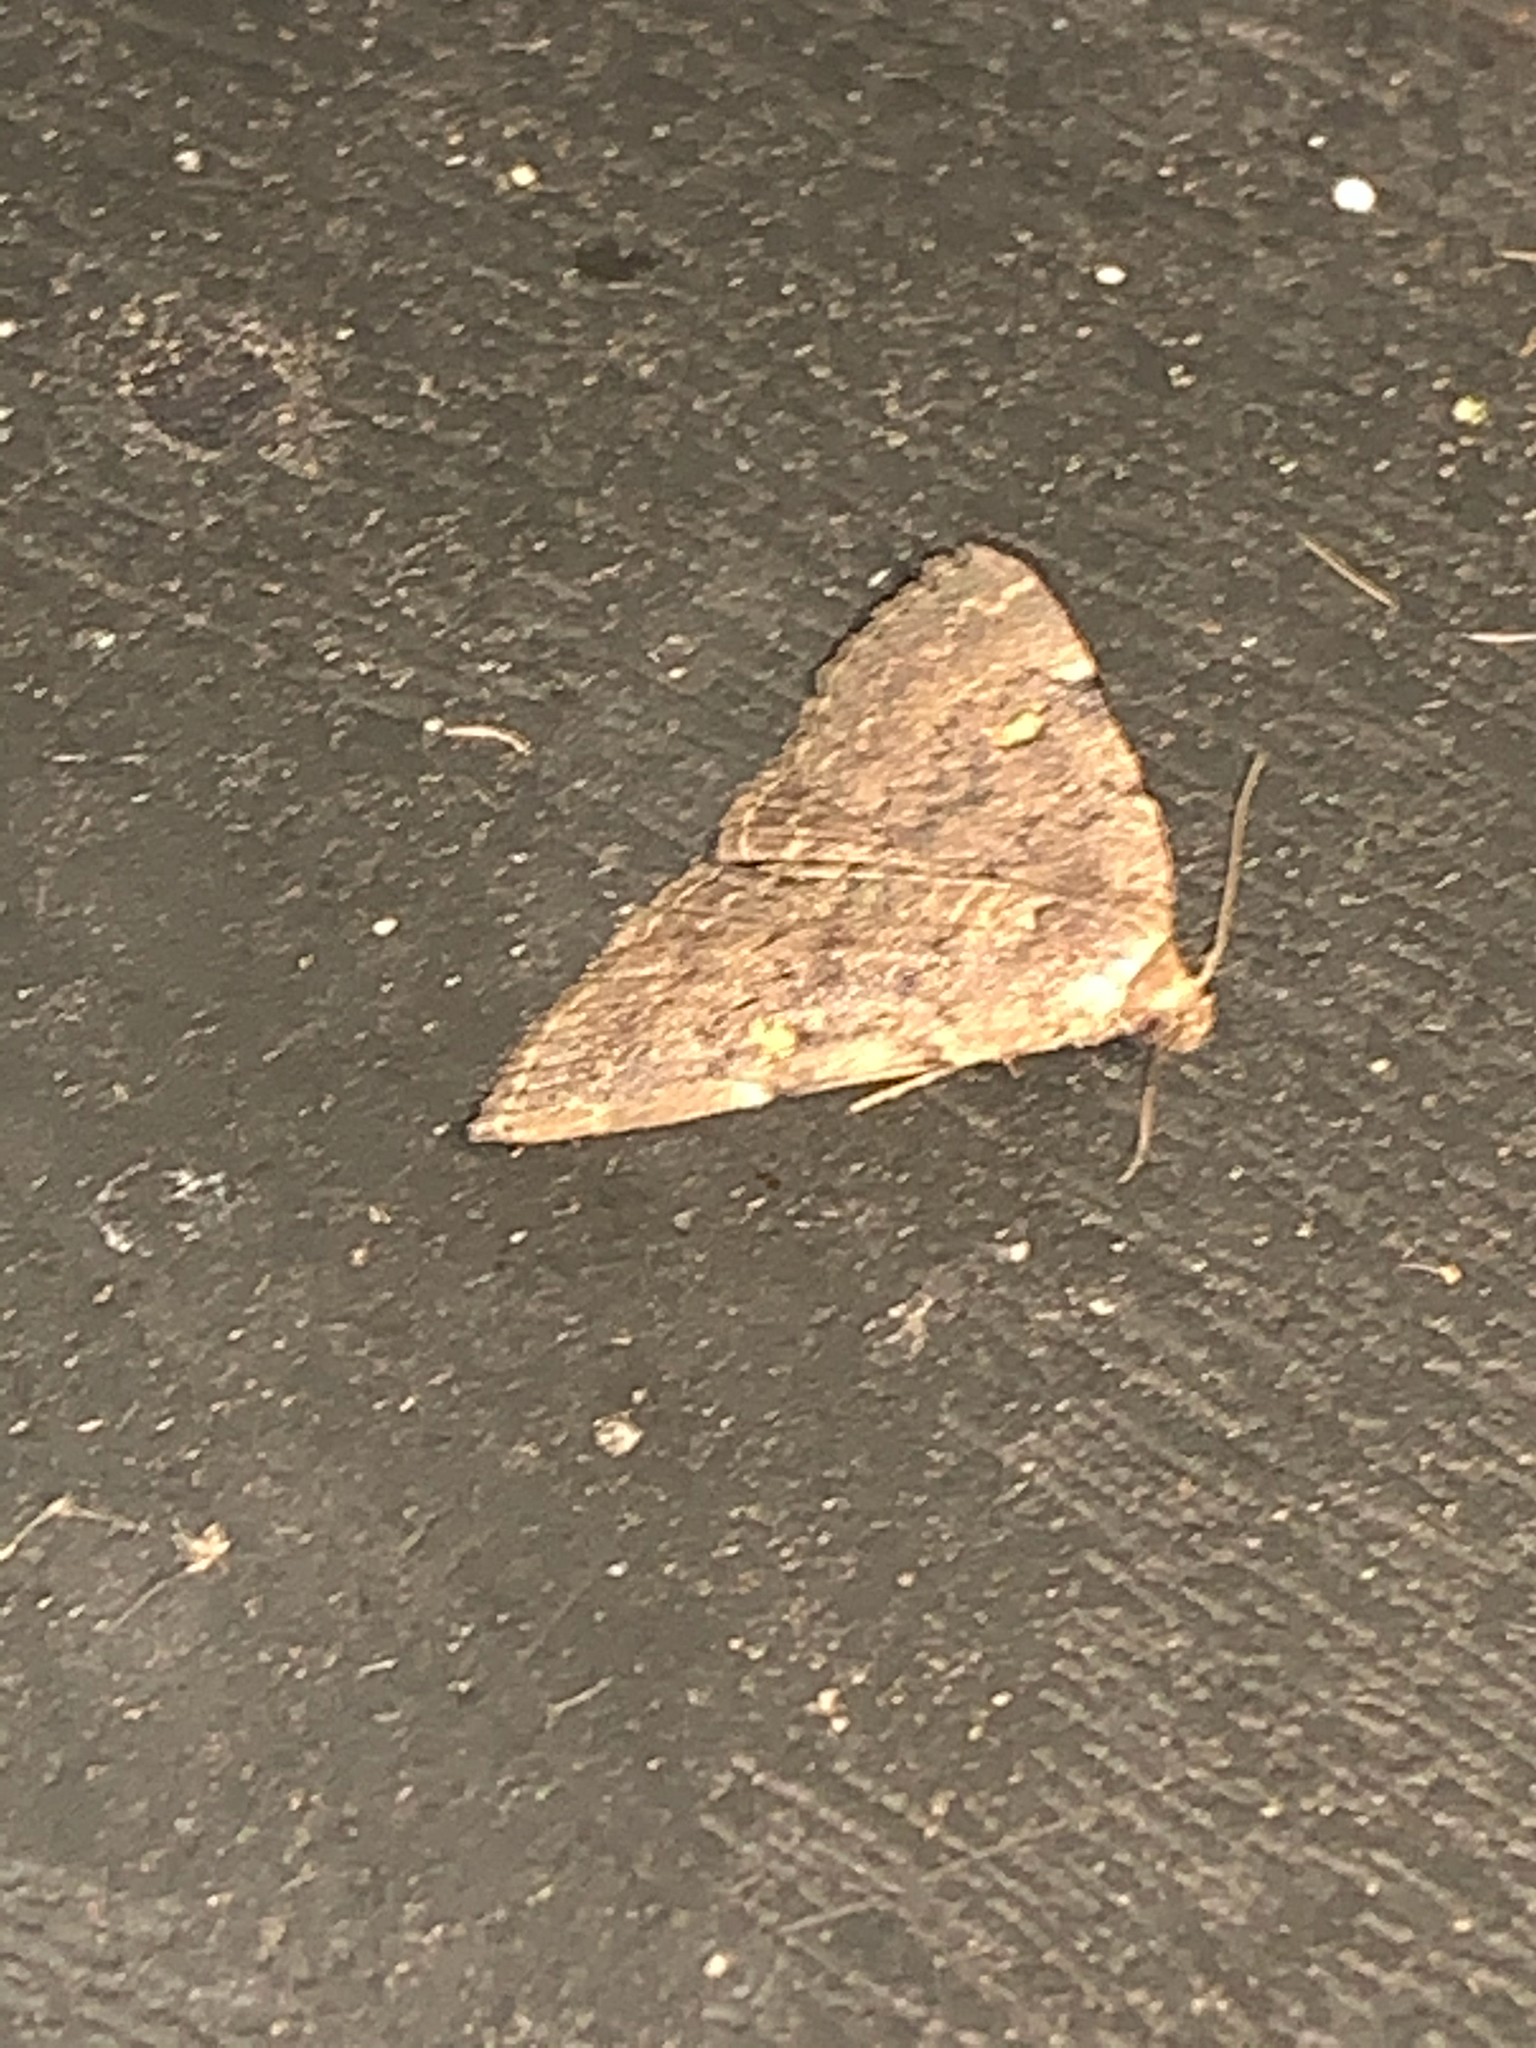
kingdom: Animalia
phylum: Arthropoda
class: Insecta
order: Lepidoptera
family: Erebidae
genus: Idia
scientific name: Idia aemula
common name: Common idia moth
